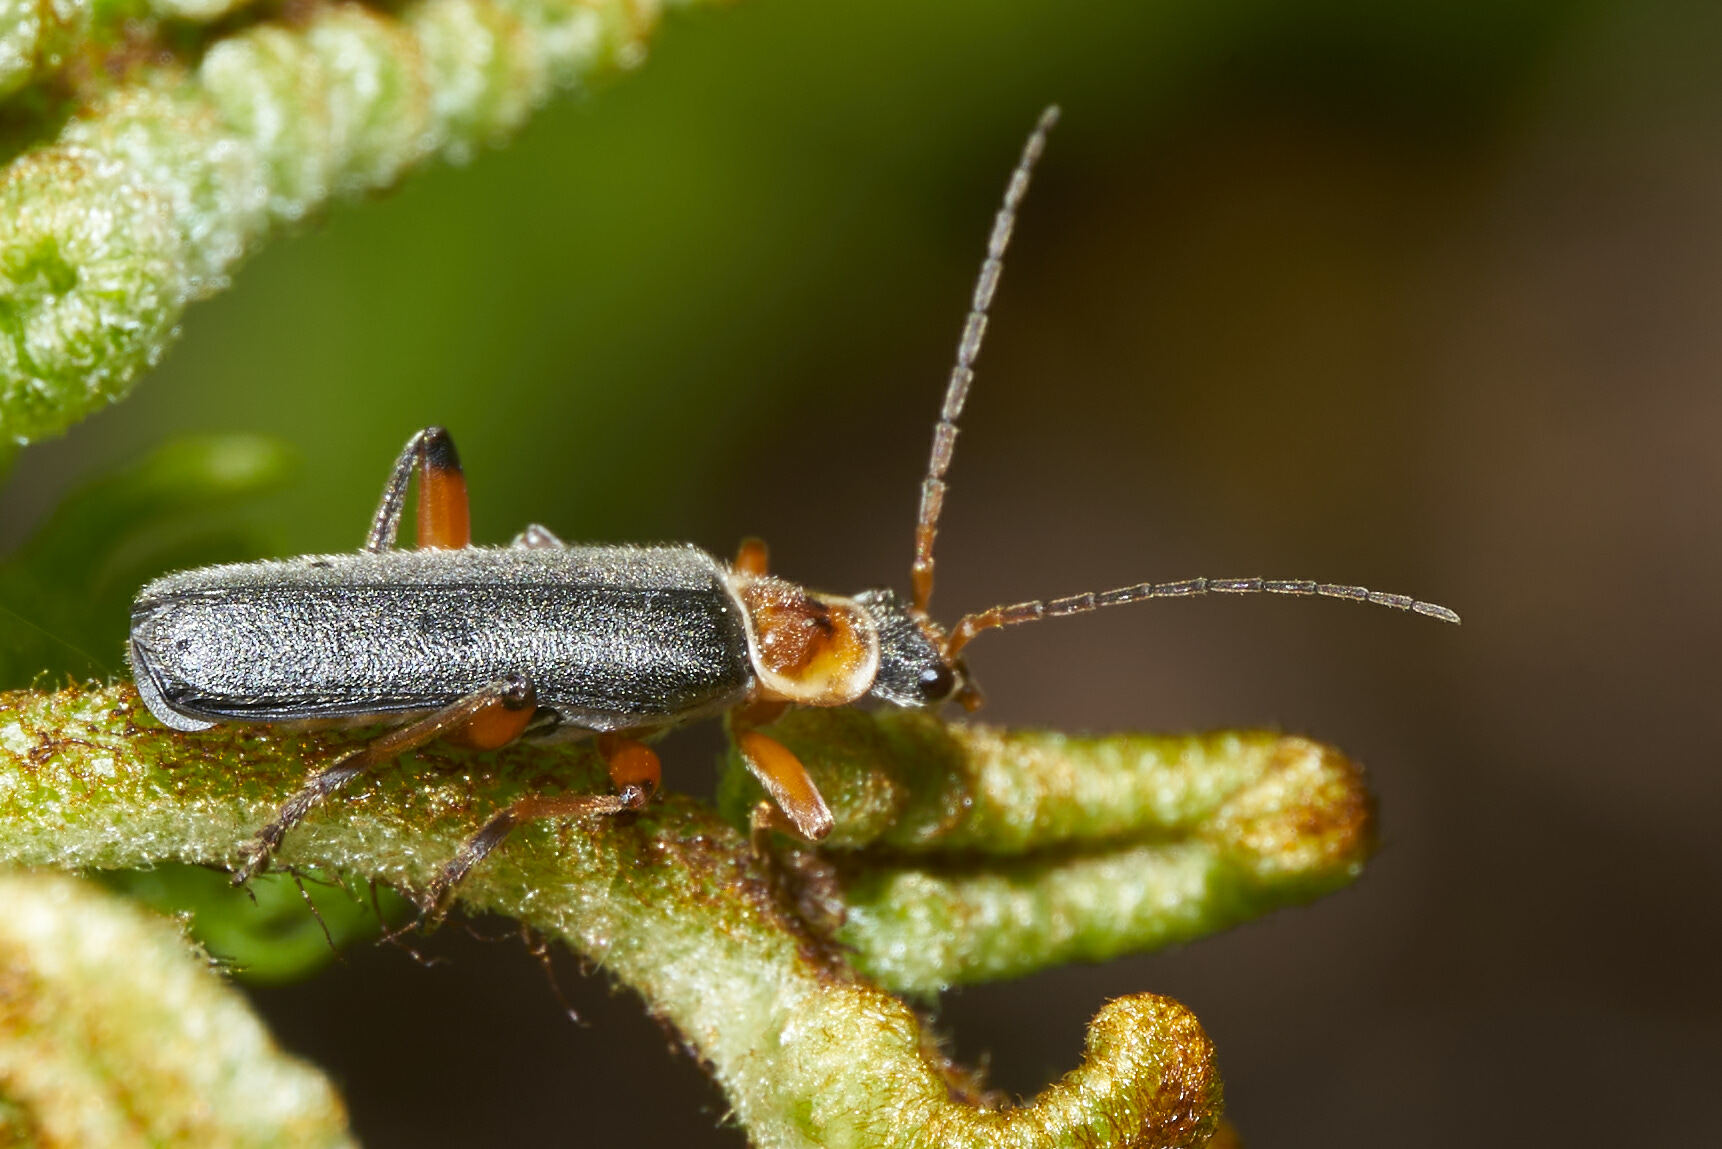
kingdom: Animalia
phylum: Arthropoda
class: Insecta
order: Coleoptera
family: Cantharidae
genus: Cantharis
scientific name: Cantharis nigricans
